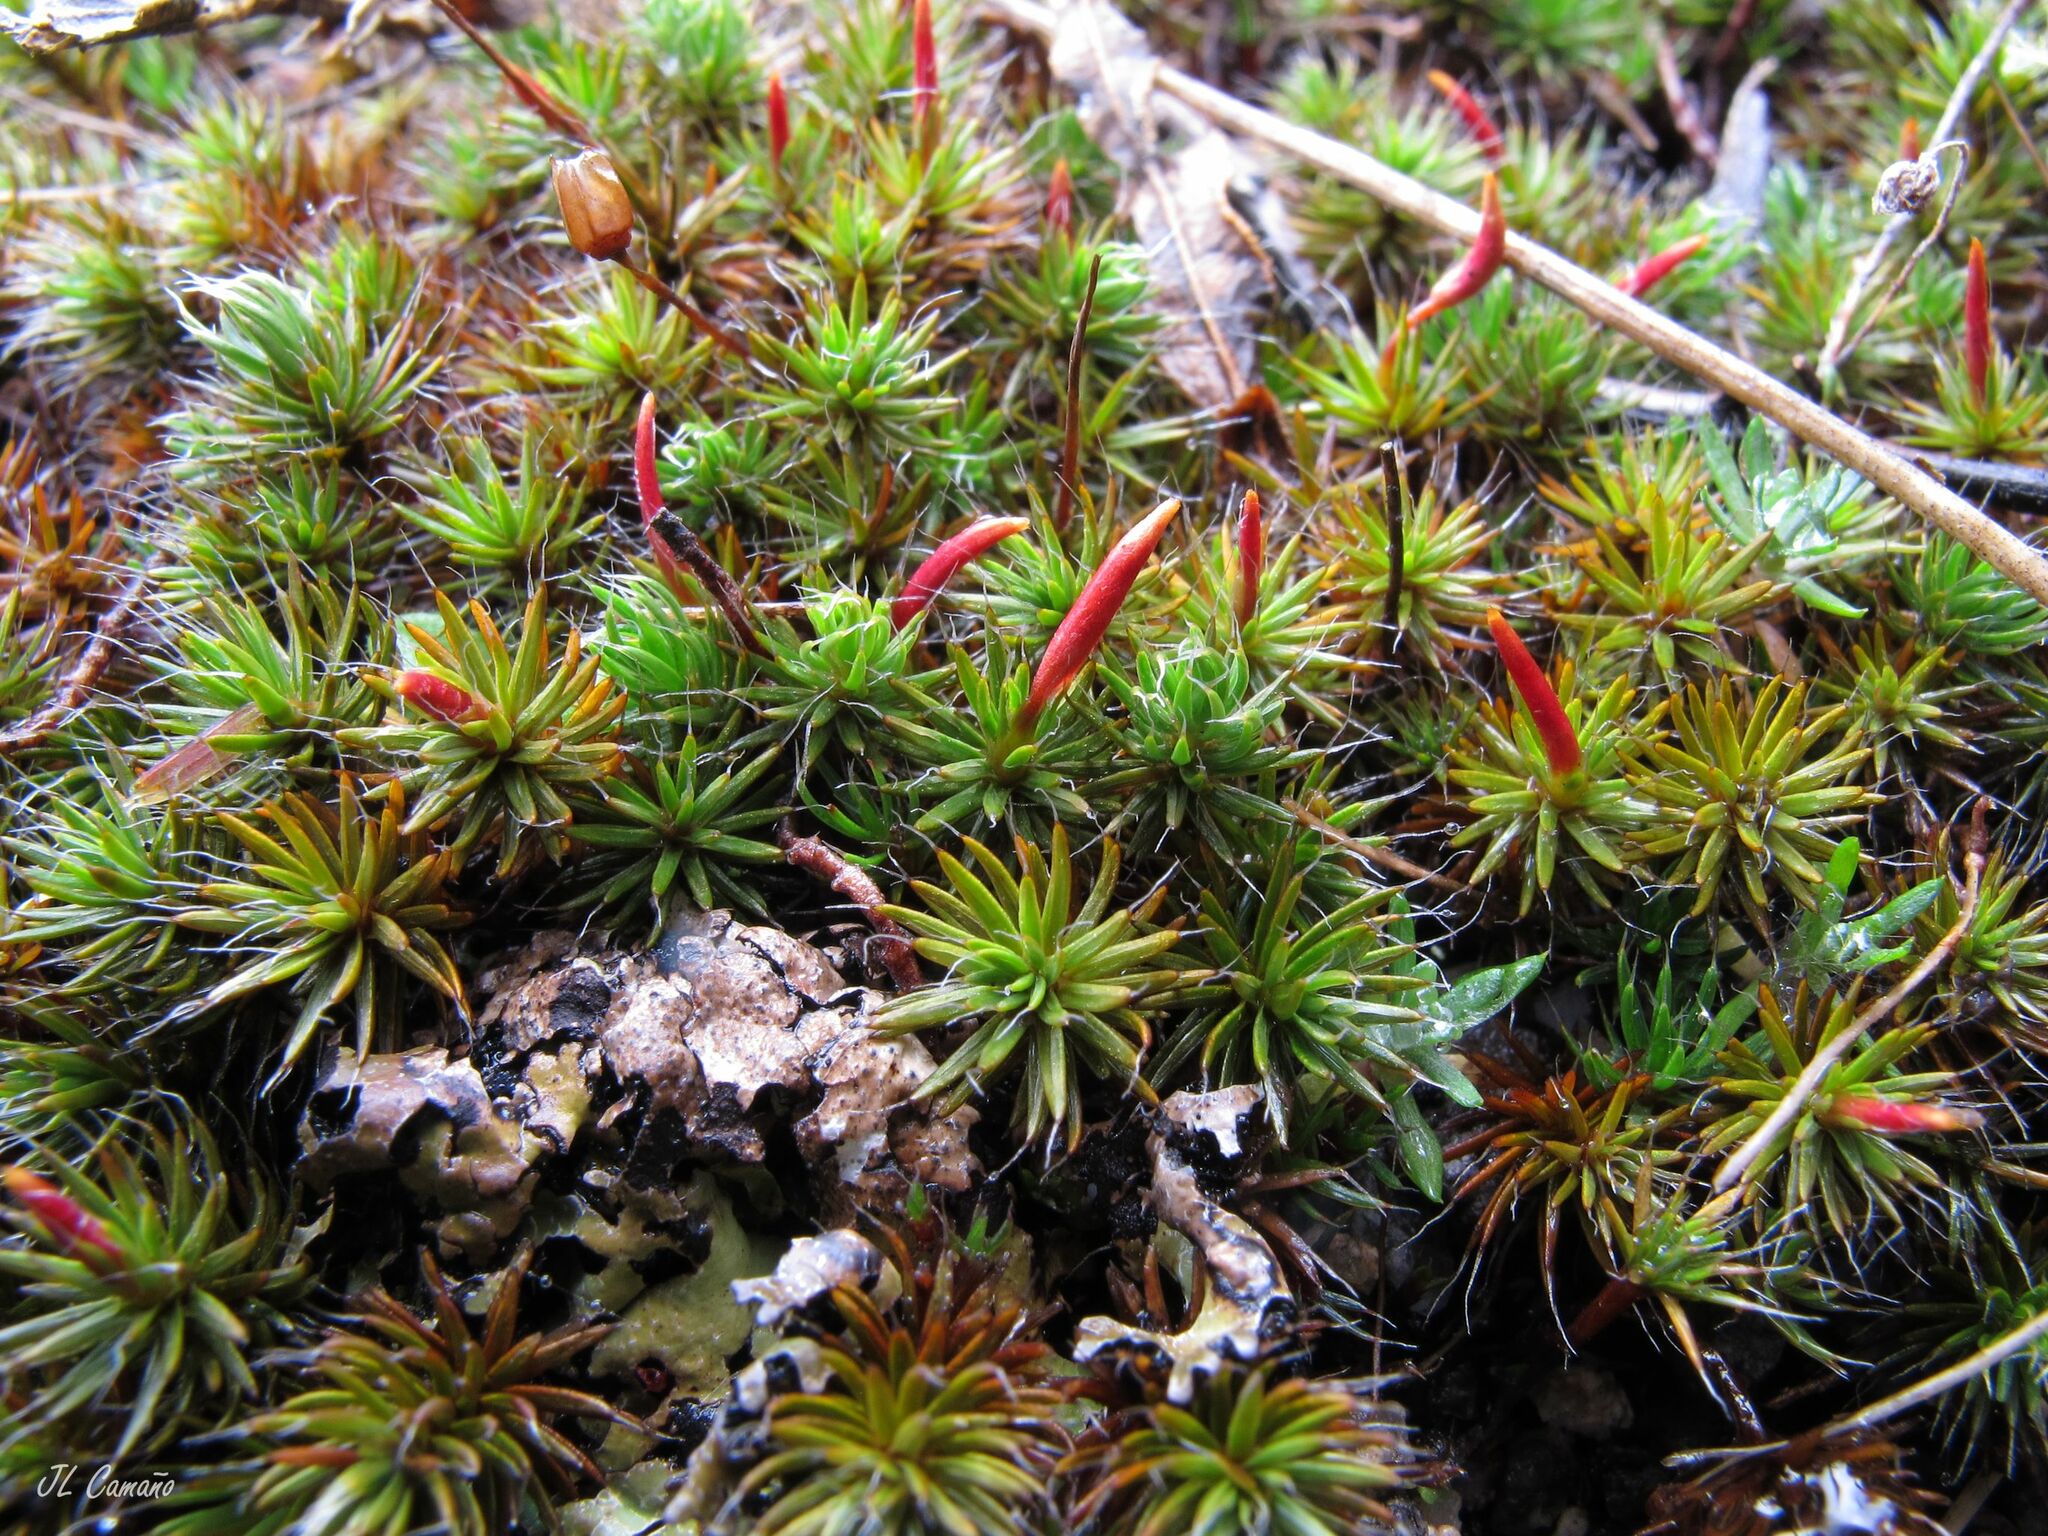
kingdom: Plantae
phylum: Bryophyta
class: Polytrichopsida
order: Polytrichales
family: Polytrichaceae
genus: Polytrichum
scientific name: Polytrichum piliferum
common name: Bristly haircap
